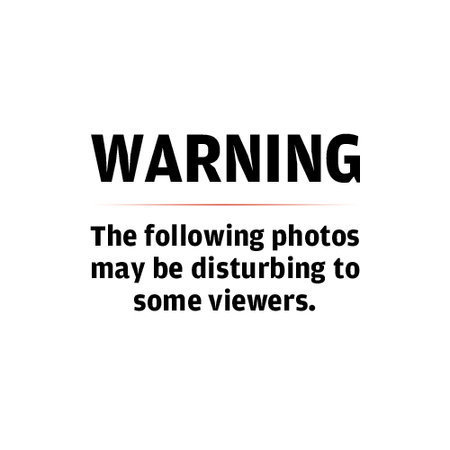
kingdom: Animalia
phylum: Chordata
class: Mammalia
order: Rodentia
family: Geomyidae
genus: Geomys
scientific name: Geomys bursarius
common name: Plains pocket gopher
